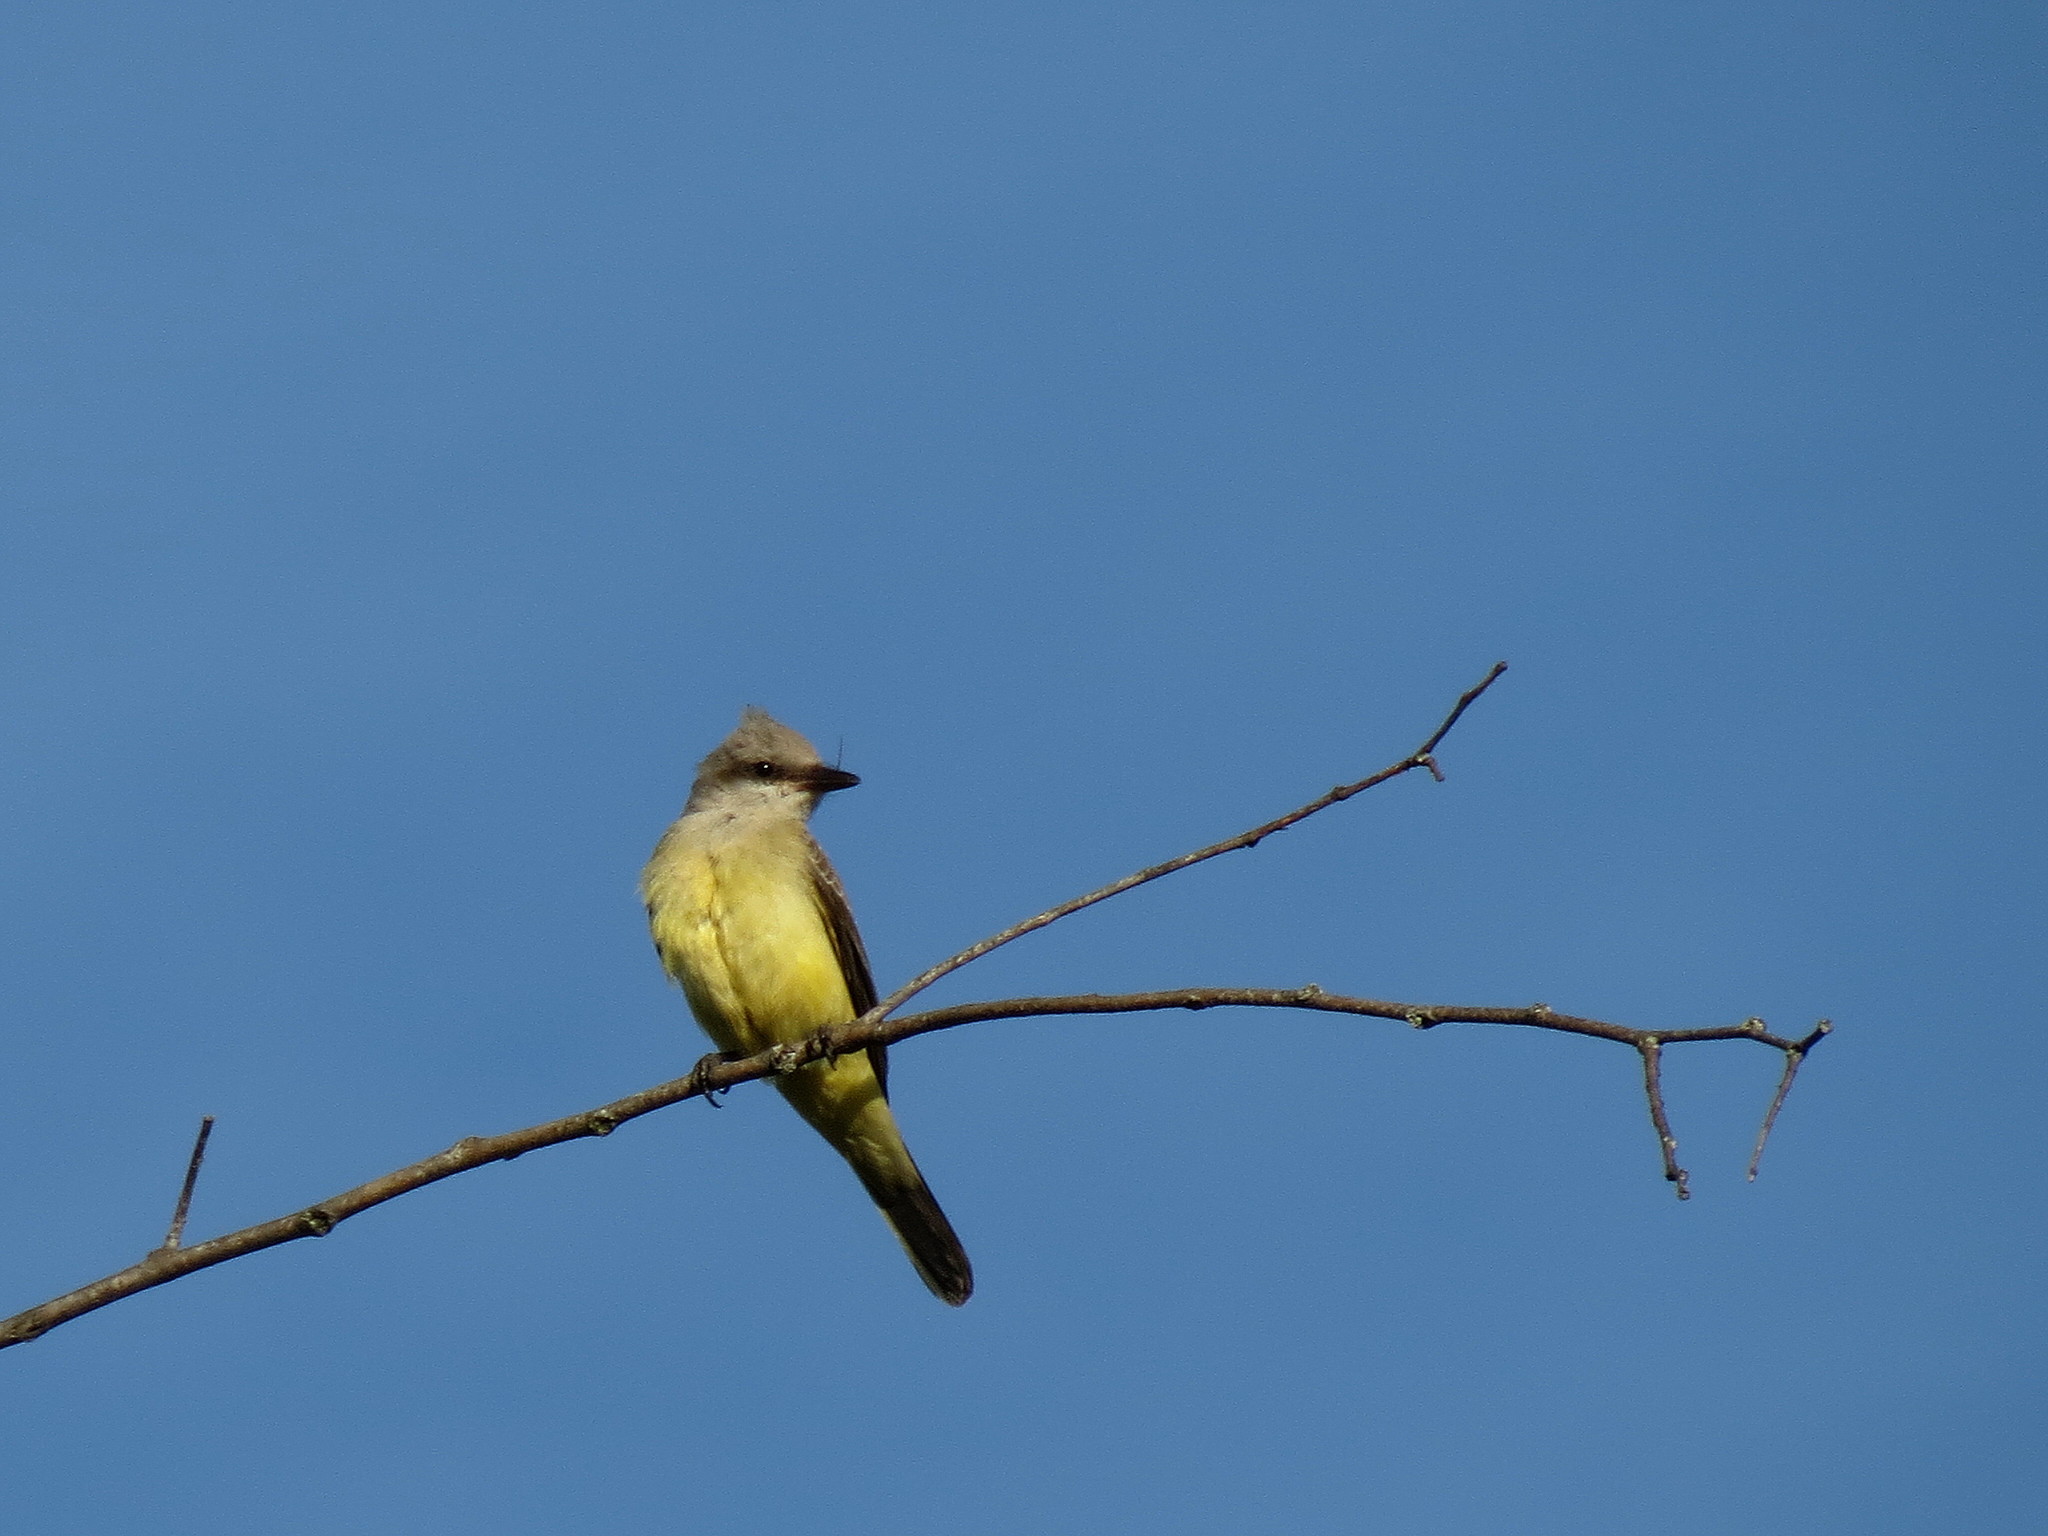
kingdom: Animalia
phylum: Chordata
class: Aves
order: Passeriformes
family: Tyrannidae
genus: Tyrannus
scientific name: Tyrannus verticalis
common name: Western kingbird
